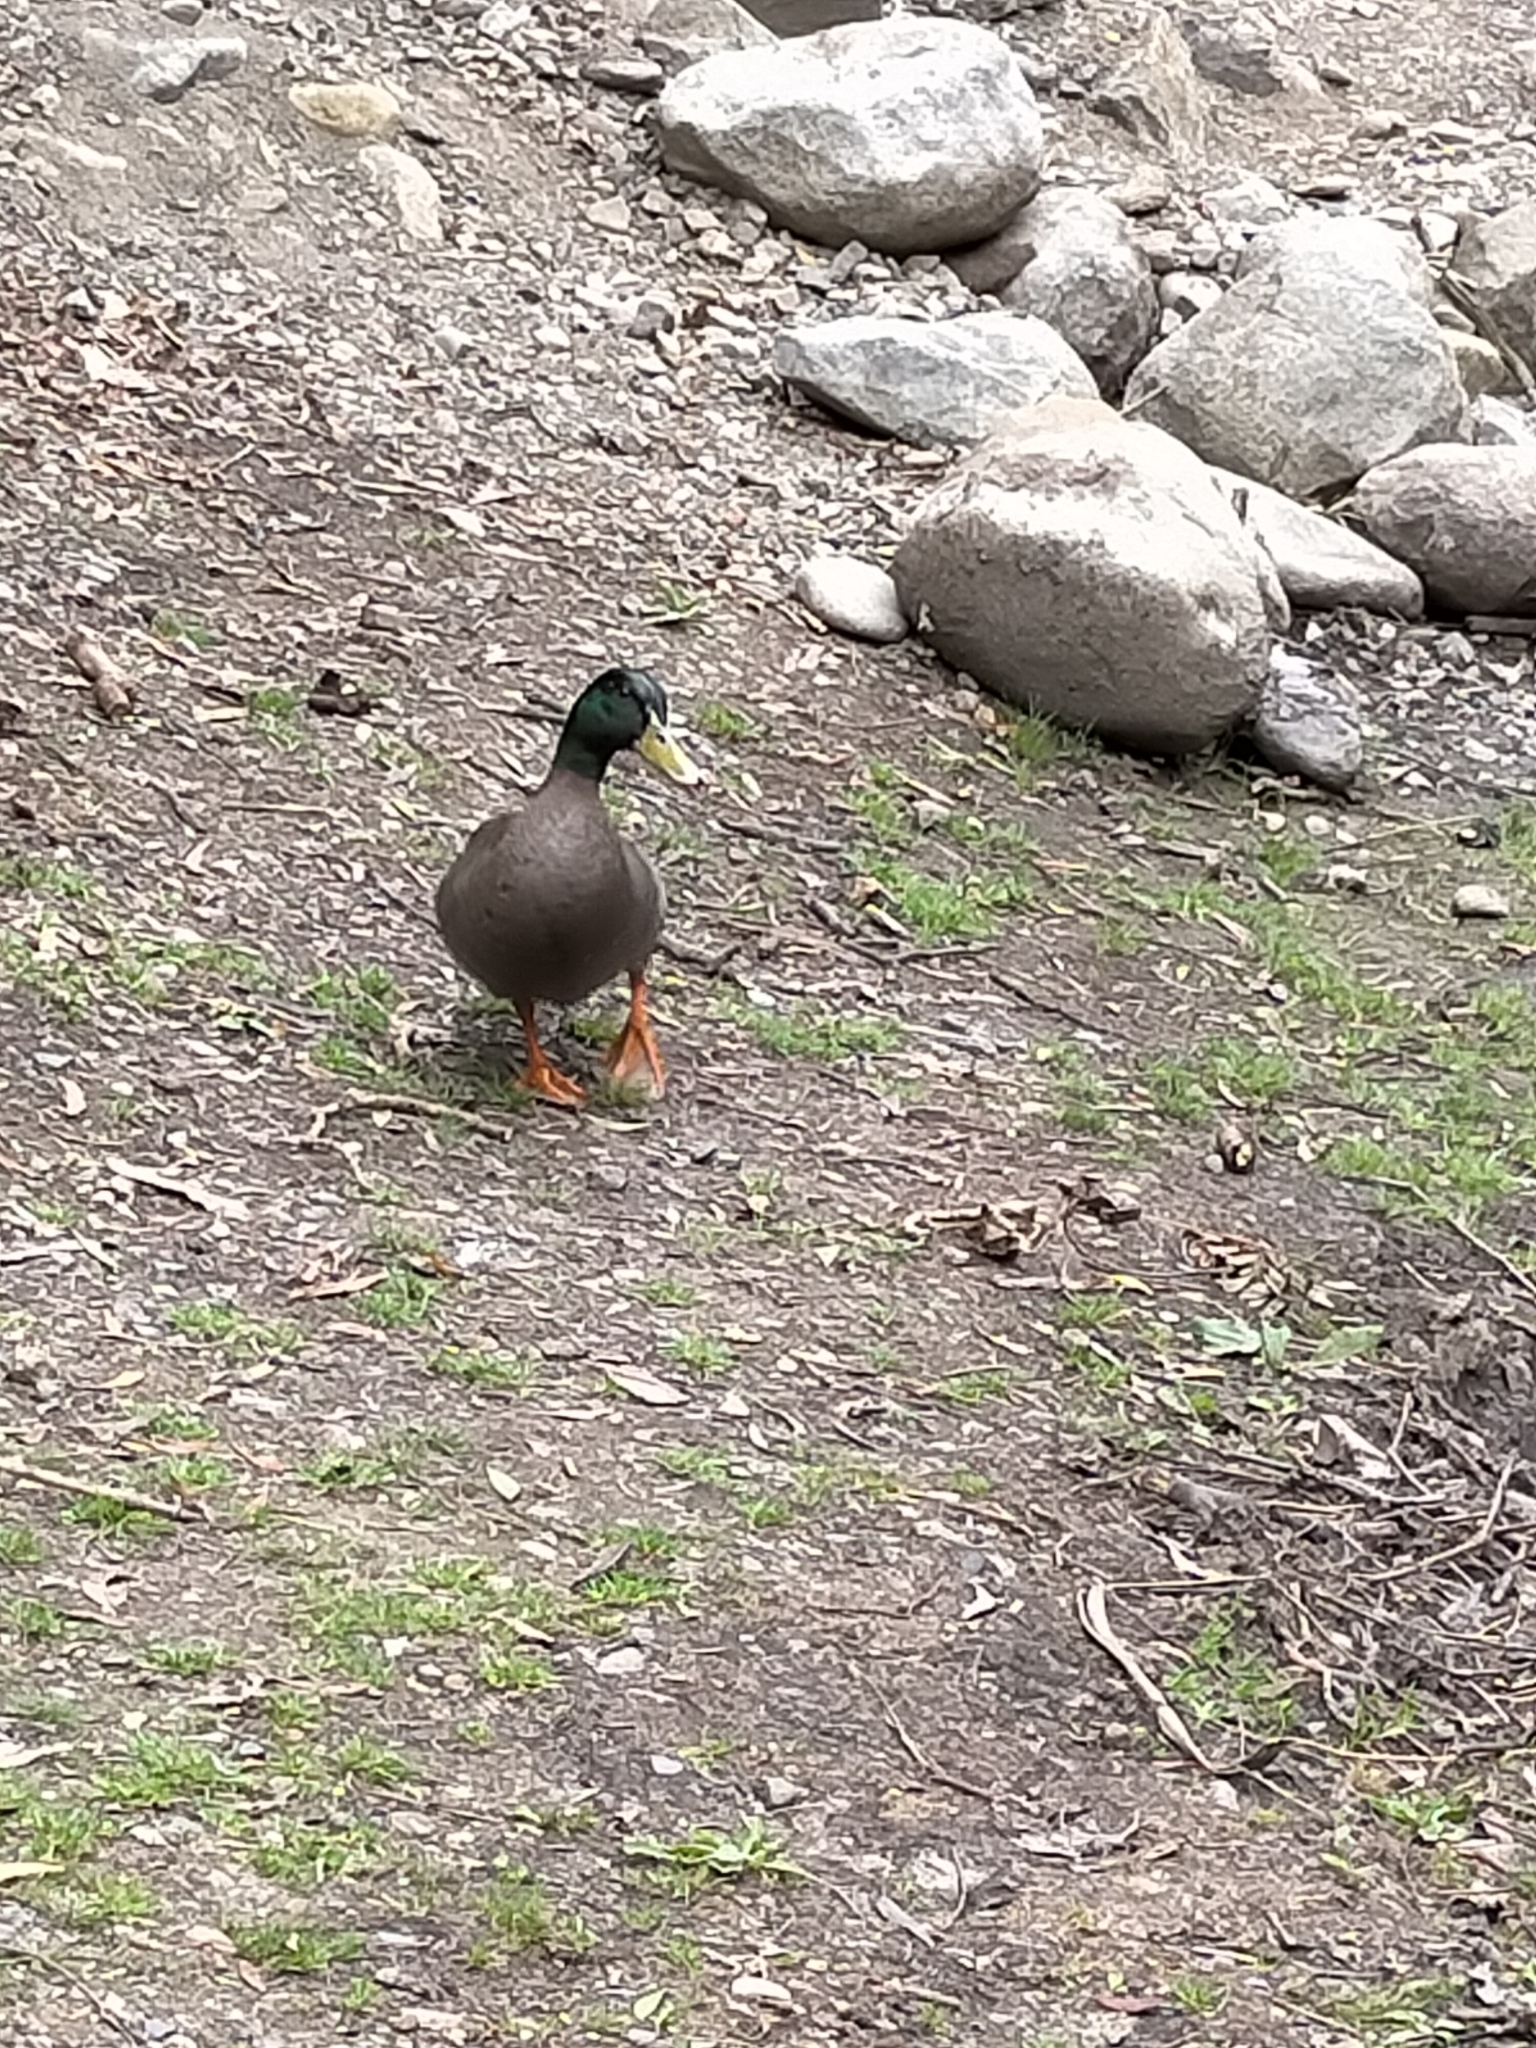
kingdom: Animalia
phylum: Chordata
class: Aves
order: Anseriformes
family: Anatidae
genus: Anas
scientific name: Anas platyrhynchos
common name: Mallard
